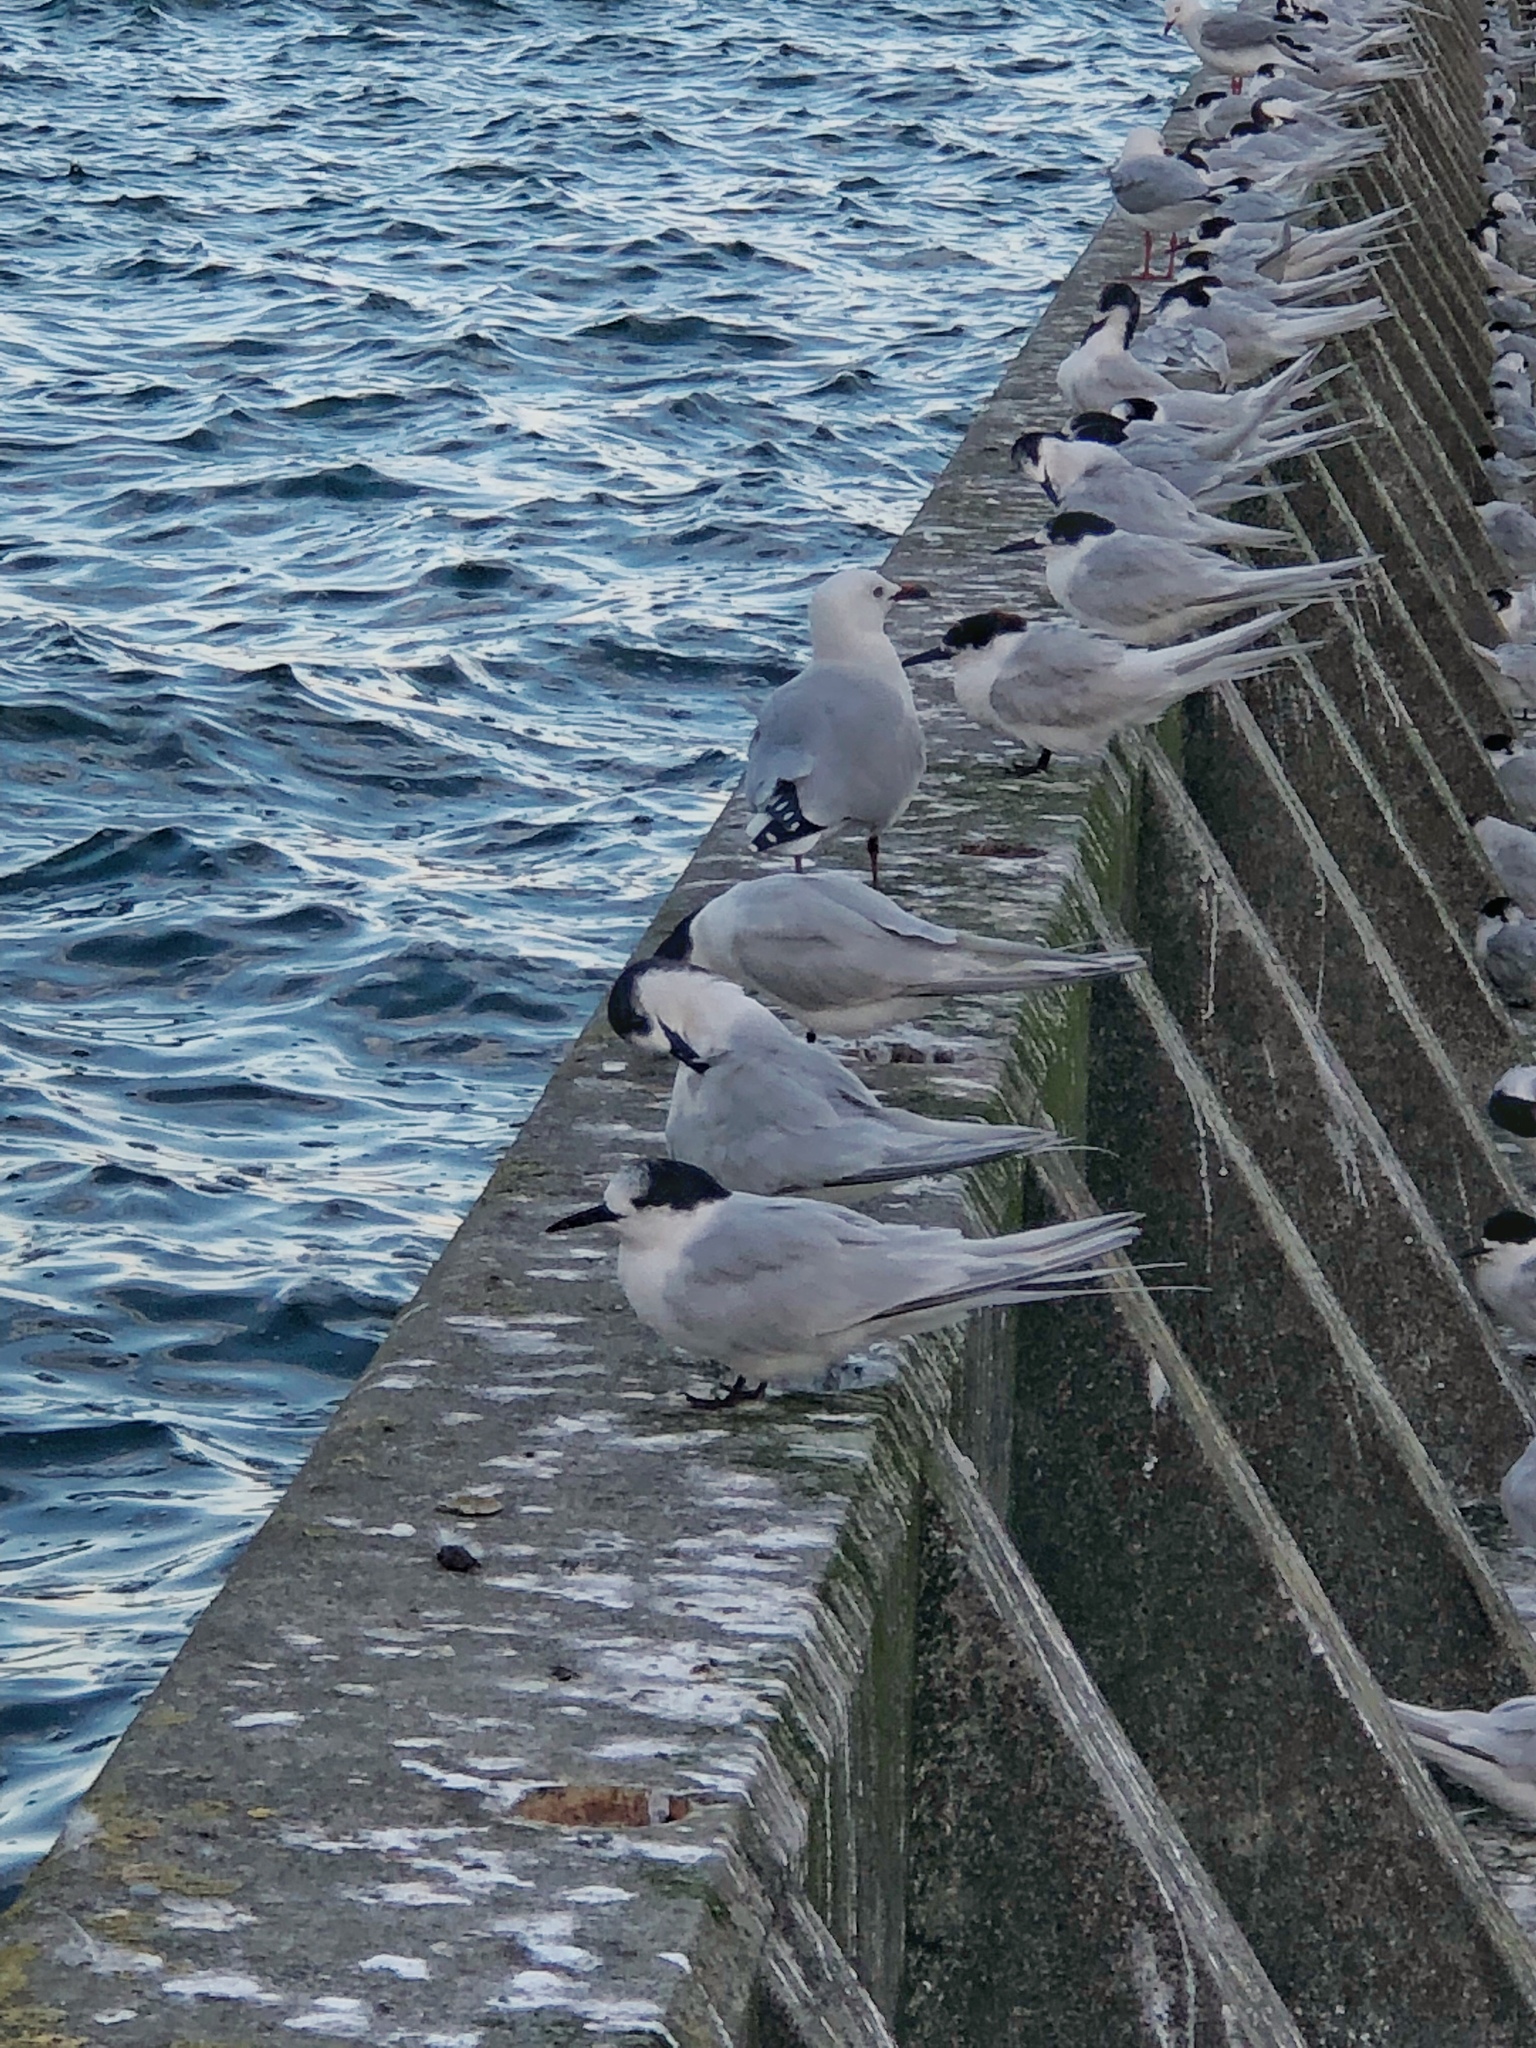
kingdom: Animalia
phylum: Chordata
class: Aves
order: Charadriiformes
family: Laridae
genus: Sterna
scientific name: Sterna striata
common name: White-fronted tern
